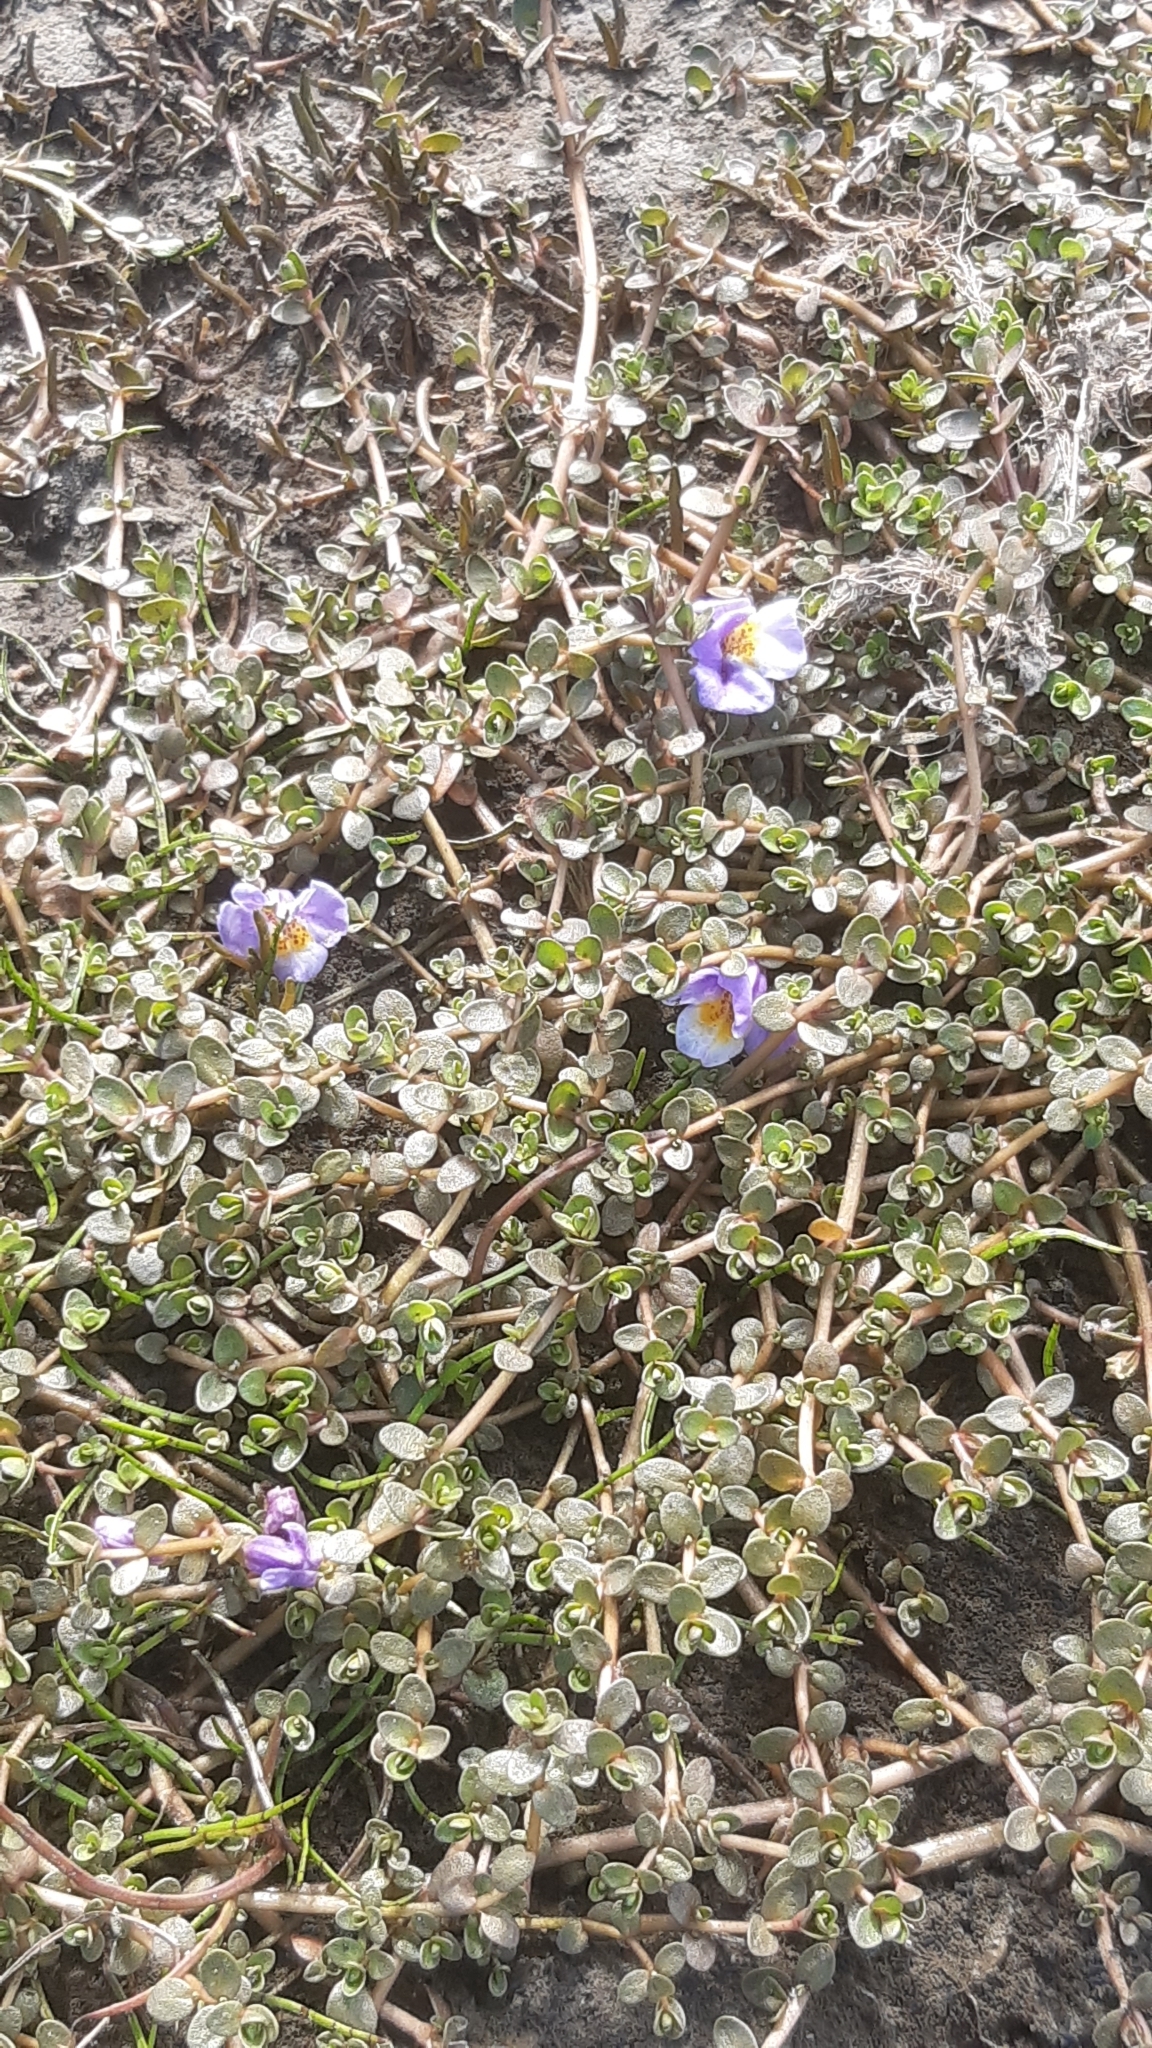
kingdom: Plantae
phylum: Tracheophyta
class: Magnoliopsida
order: Lamiales
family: Phrymaceae
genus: Thyridia
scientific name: Thyridia repens
